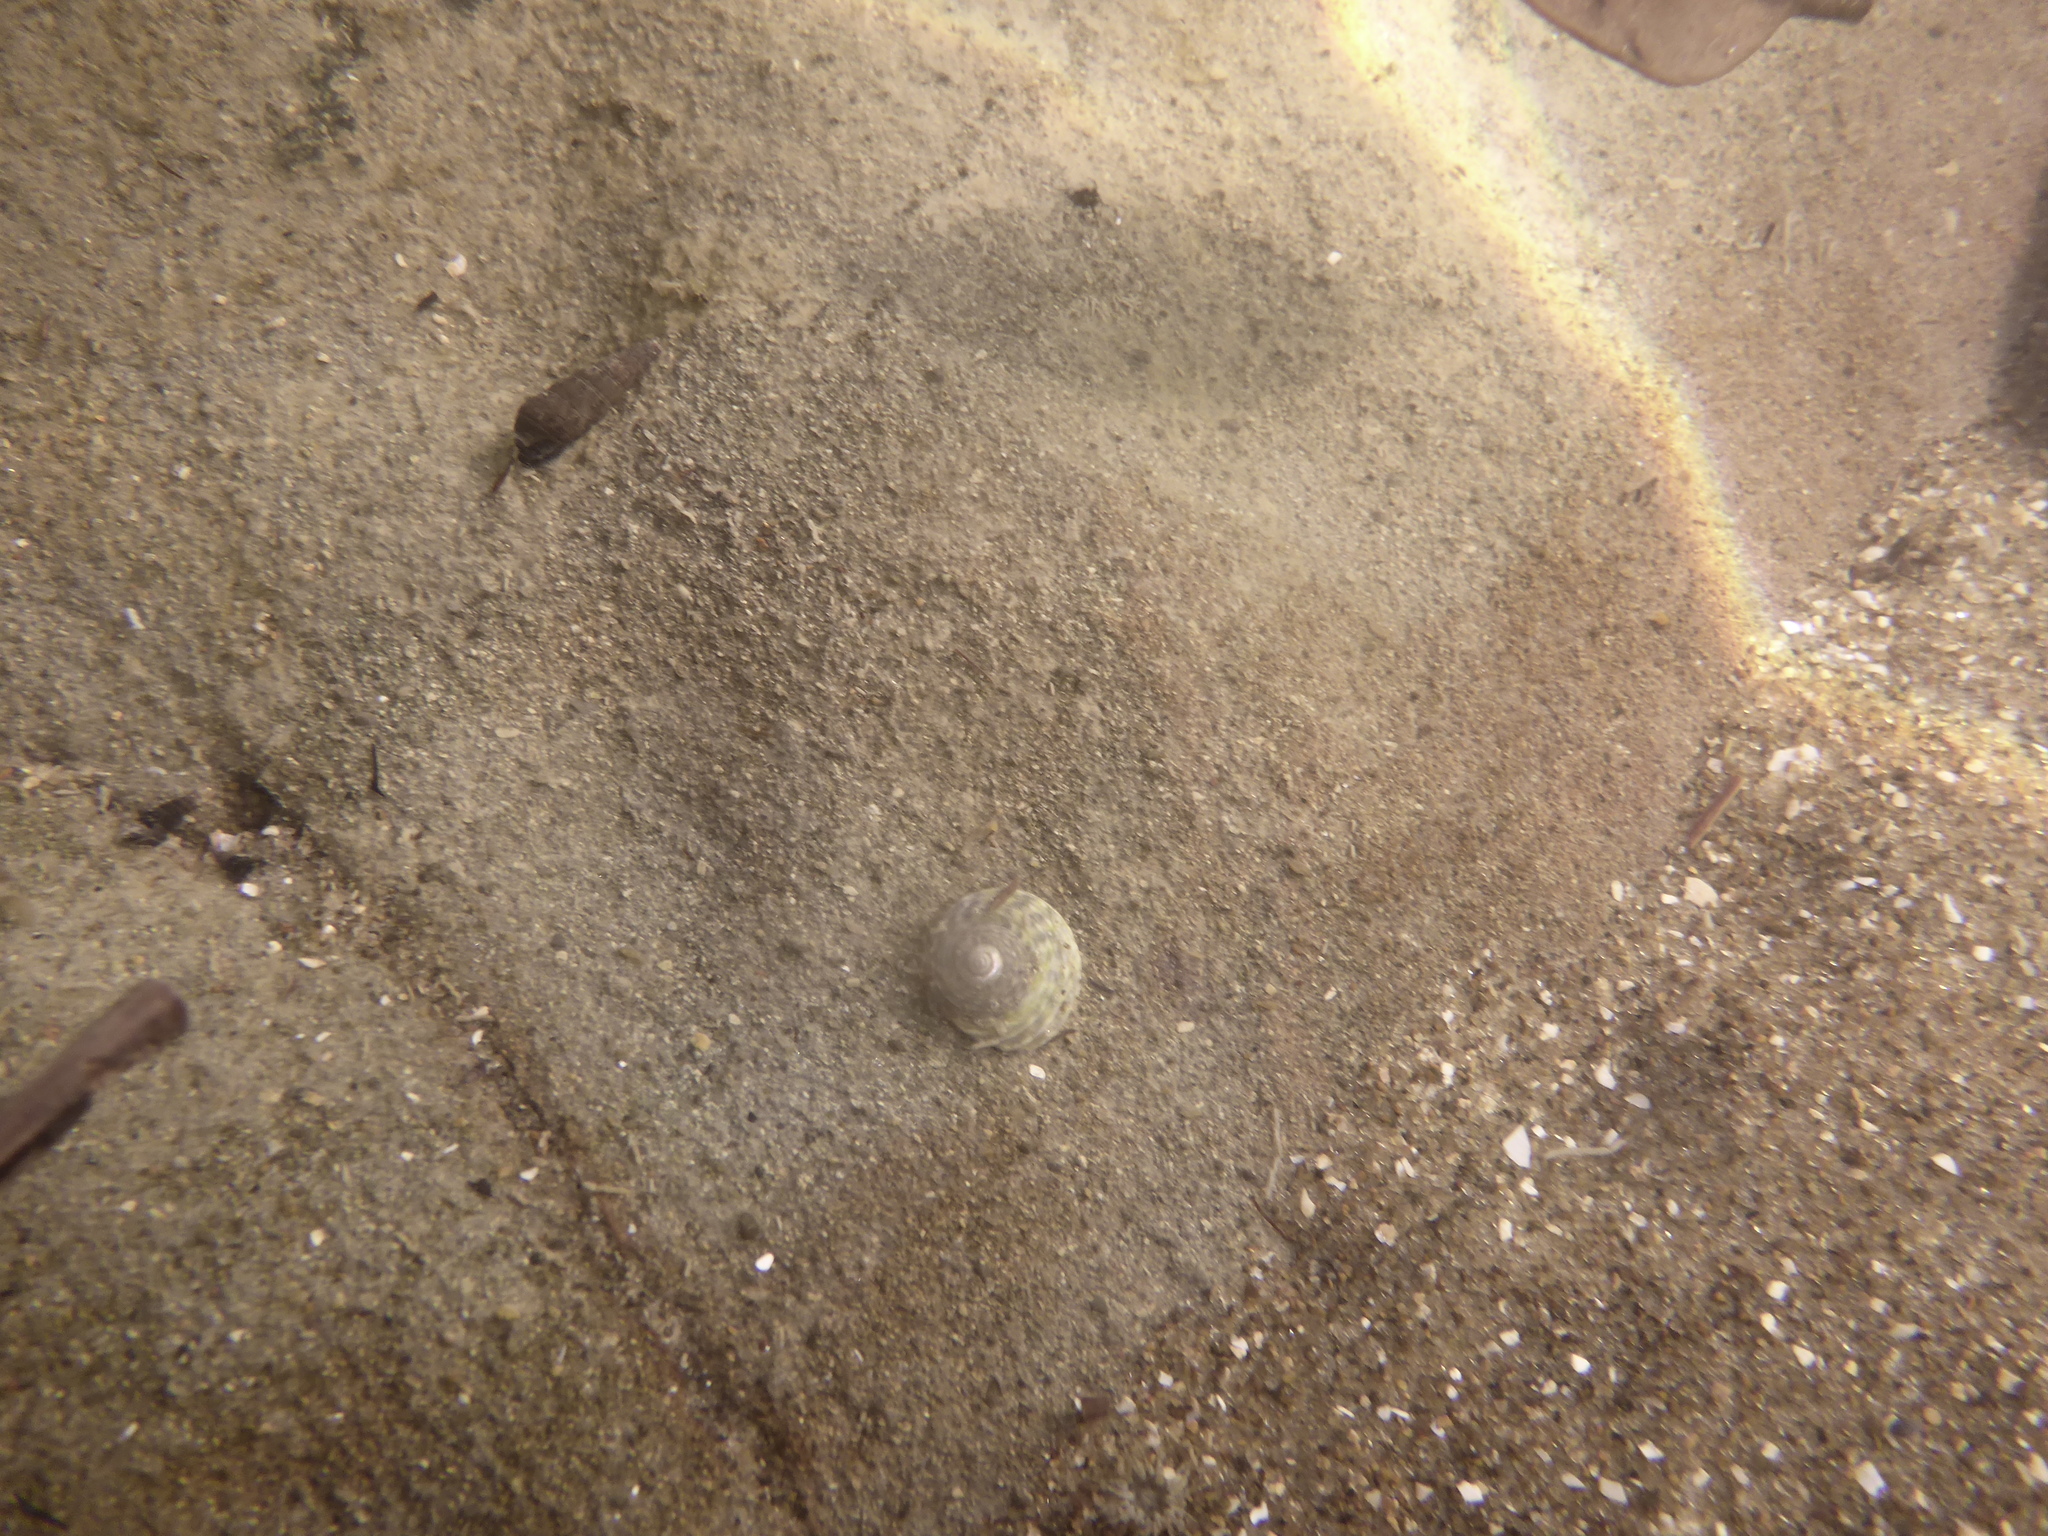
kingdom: Animalia
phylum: Mollusca
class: Gastropoda
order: Trochida
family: Trochidae
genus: Diloma
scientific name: Diloma subrostratum
